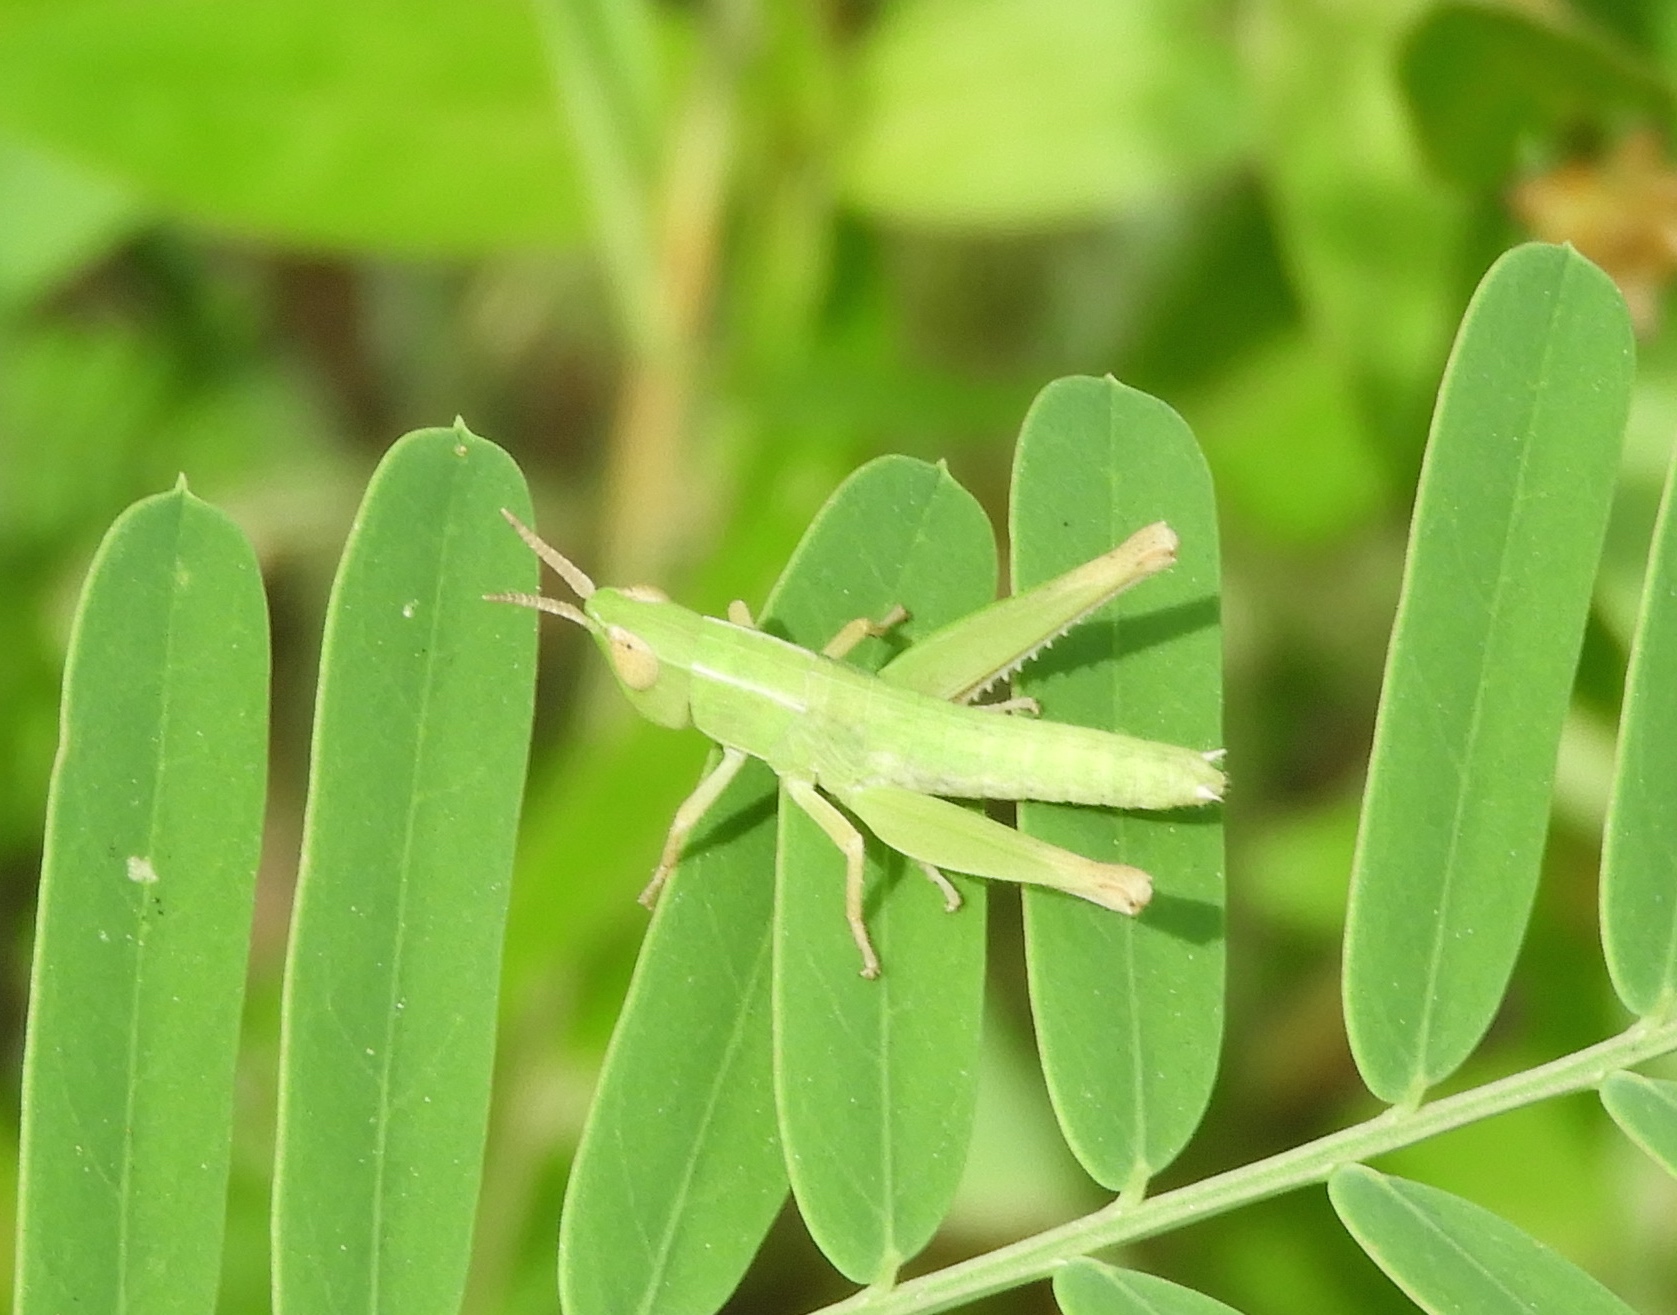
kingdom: Animalia
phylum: Arthropoda
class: Insecta
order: Orthoptera
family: Acrididae
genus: Dichromorpha
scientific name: Dichromorpha prominula
